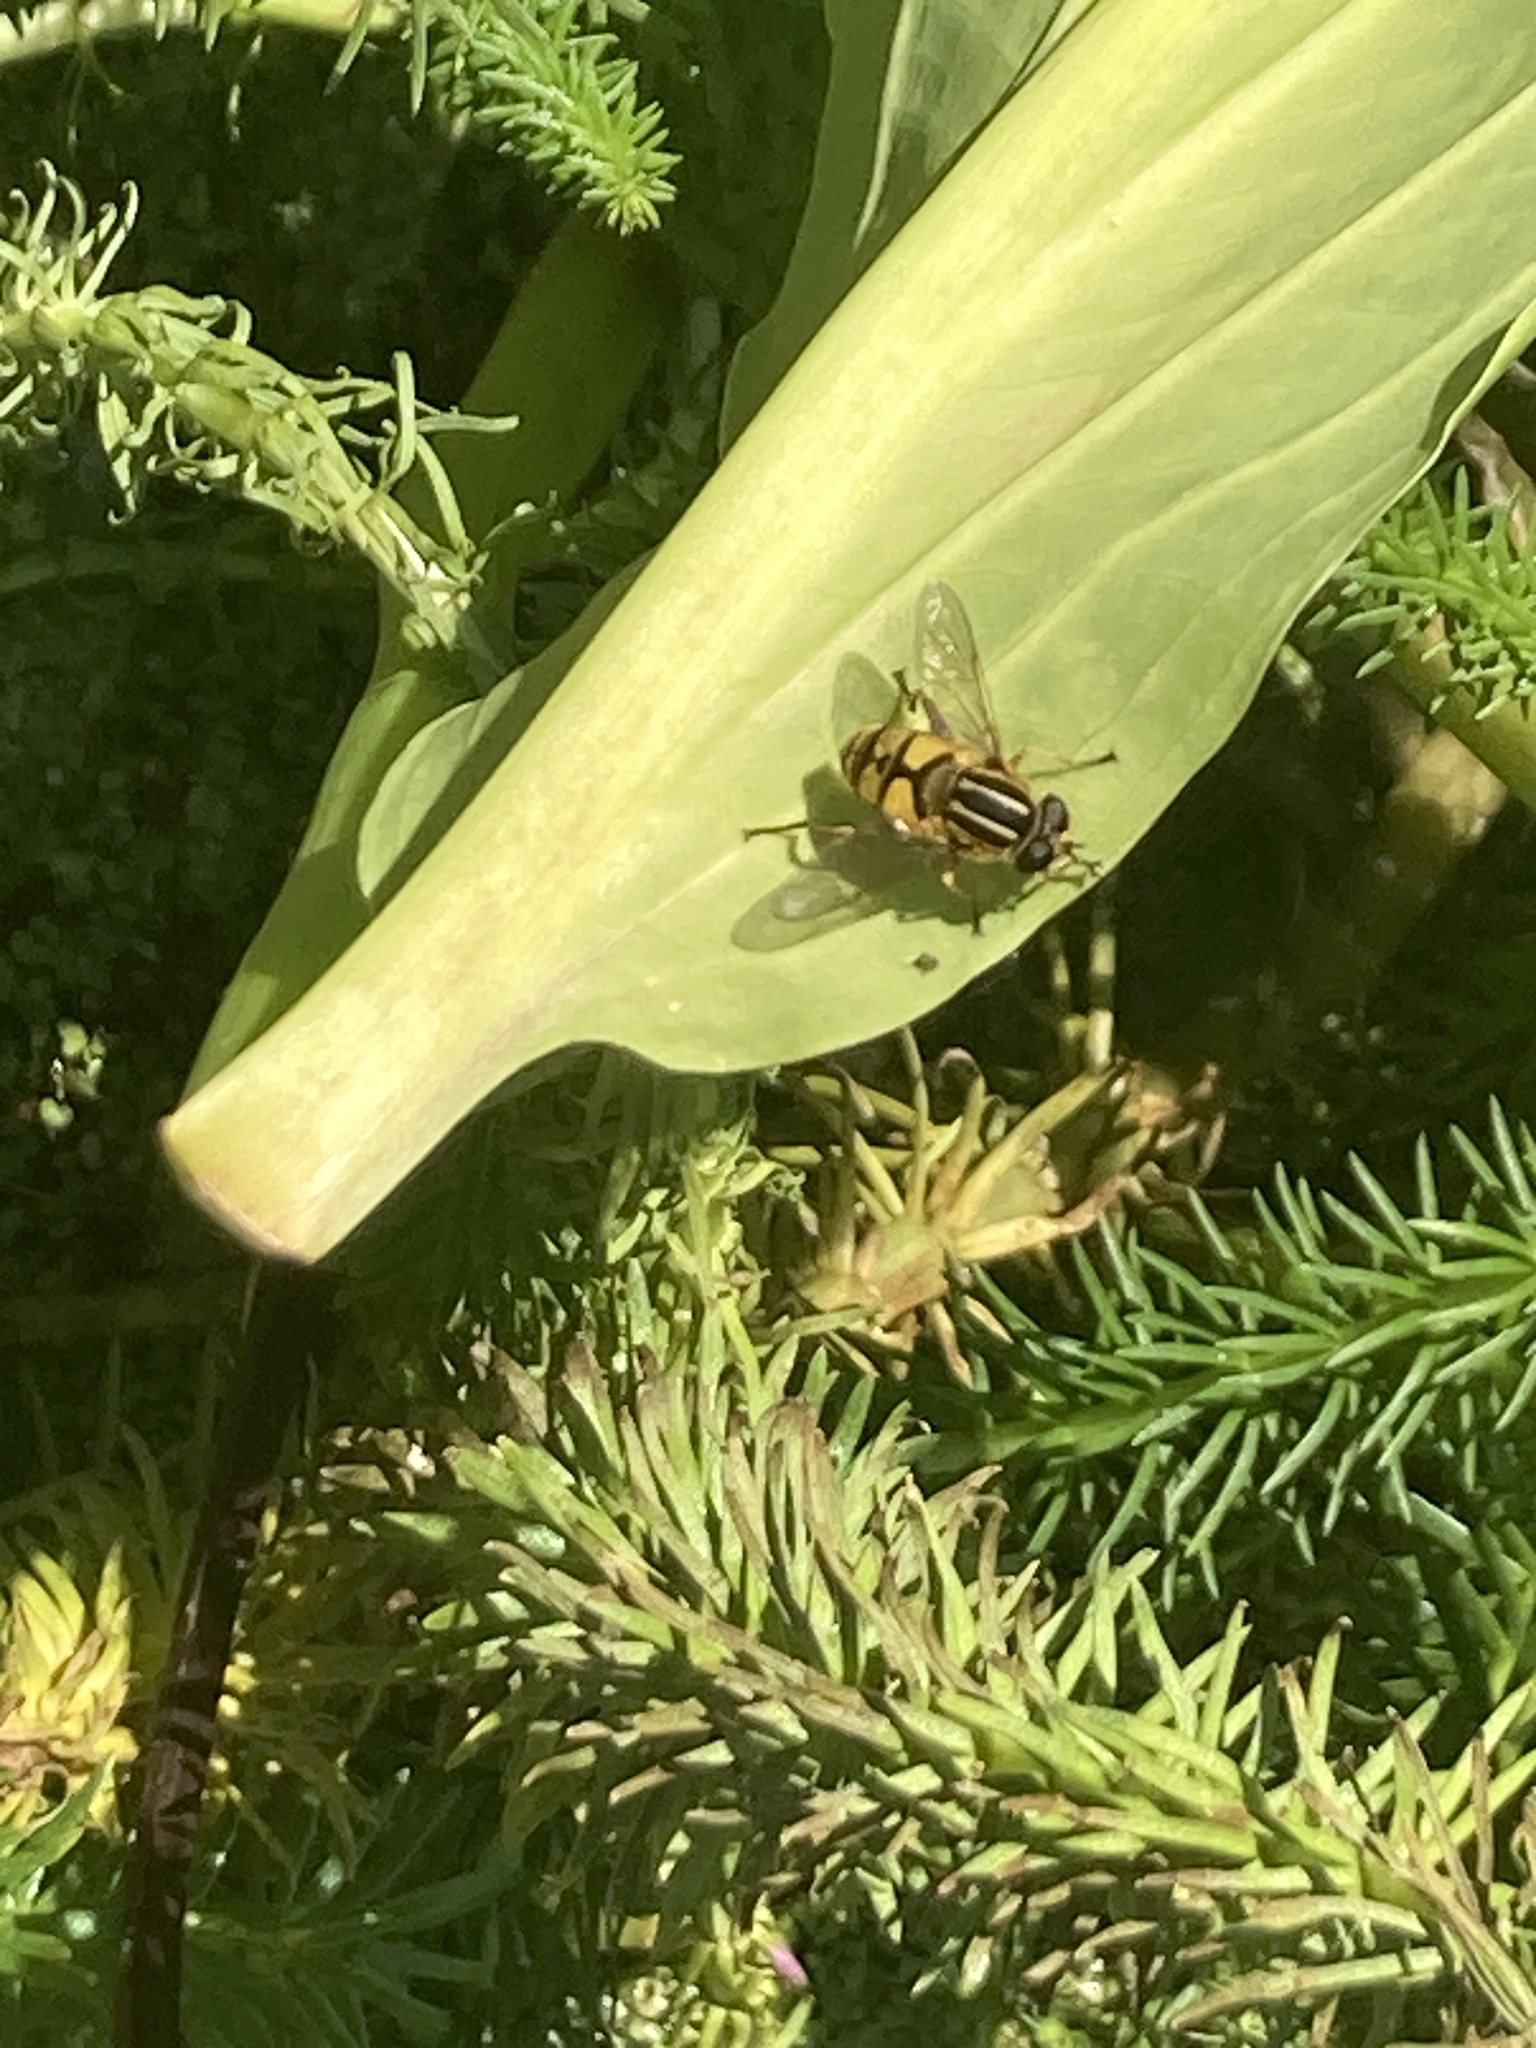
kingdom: Animalia
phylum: Arthropoda
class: Insecta
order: Diptera
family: Syrphidae
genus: Helophilus
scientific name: Helophilus
